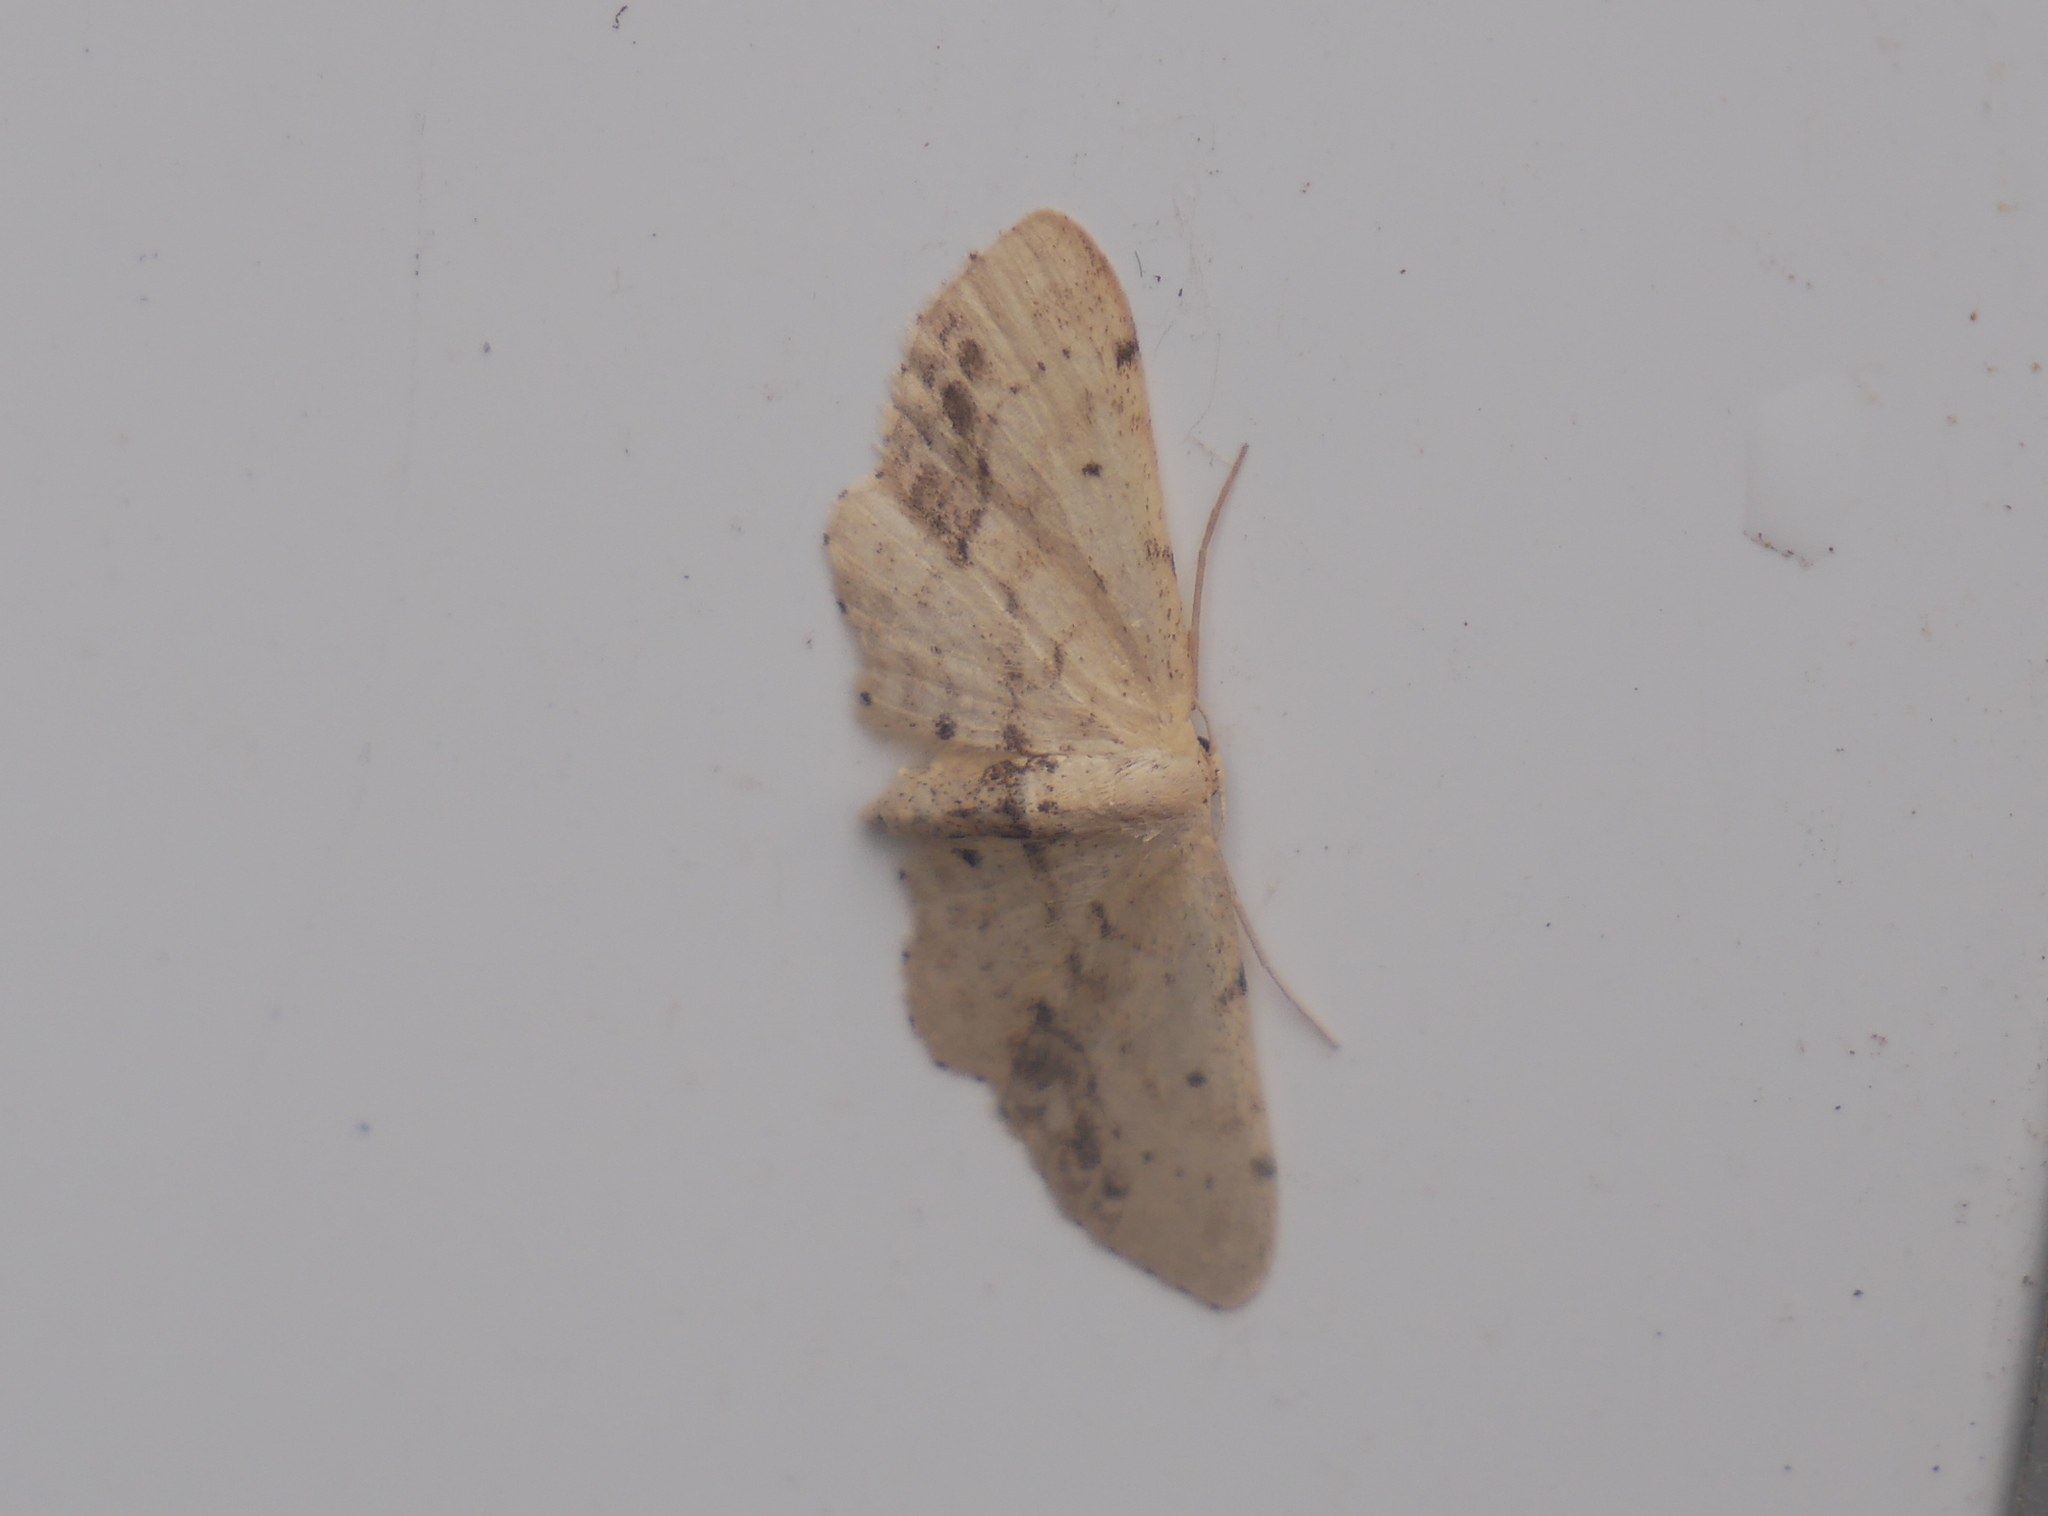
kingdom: Animalia
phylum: Arthropoda
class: Insecta
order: Lepidoptera
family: Geometridae
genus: Idaea
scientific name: Idaea dimidiata
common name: Single-dotted wave
